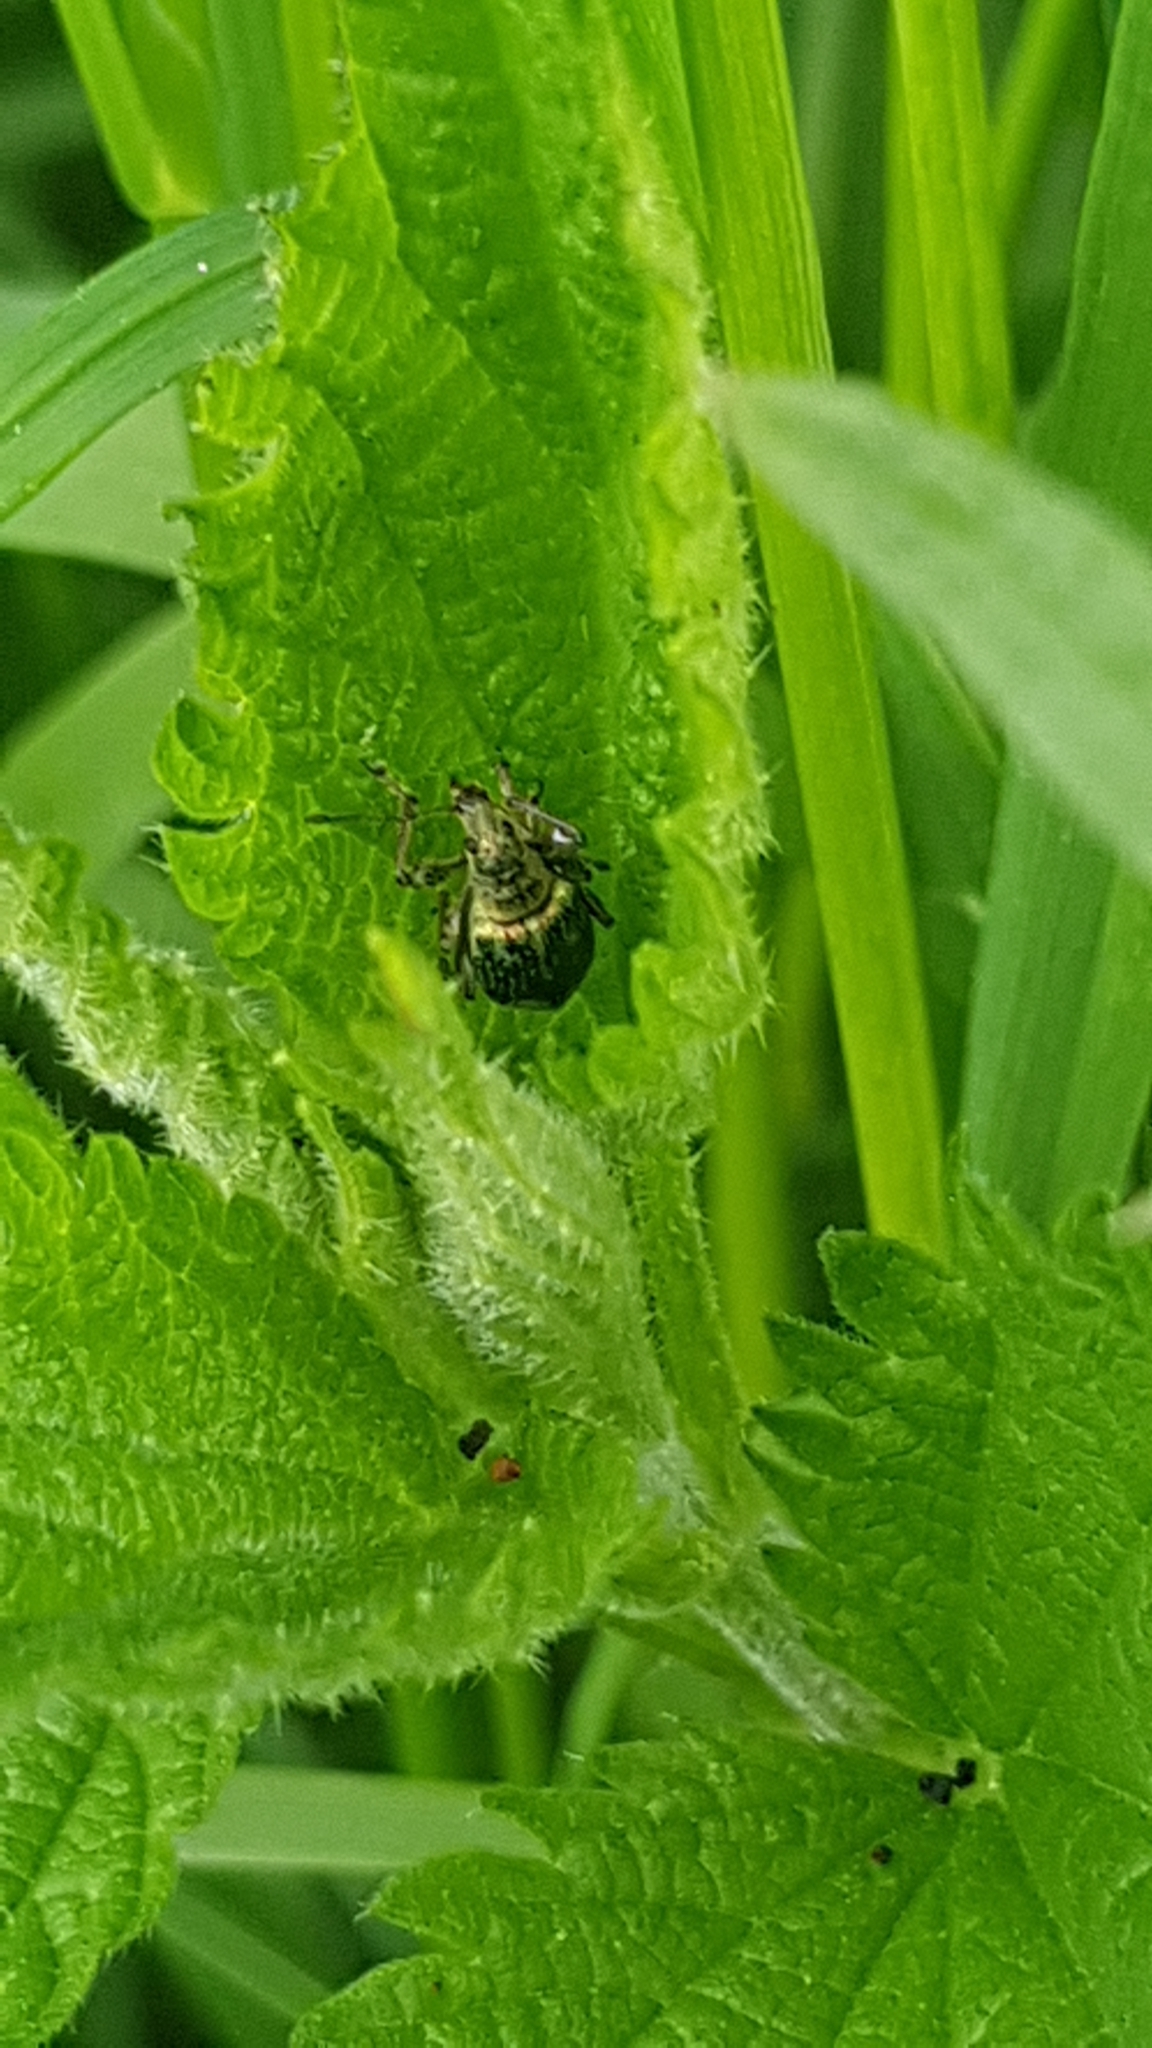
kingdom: Animalia
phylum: Arthropoda
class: Insecta
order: Coleoptera
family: Curculionidae
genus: Phyllobius
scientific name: Phyllobius pomaceus
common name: Green nettle weevil
